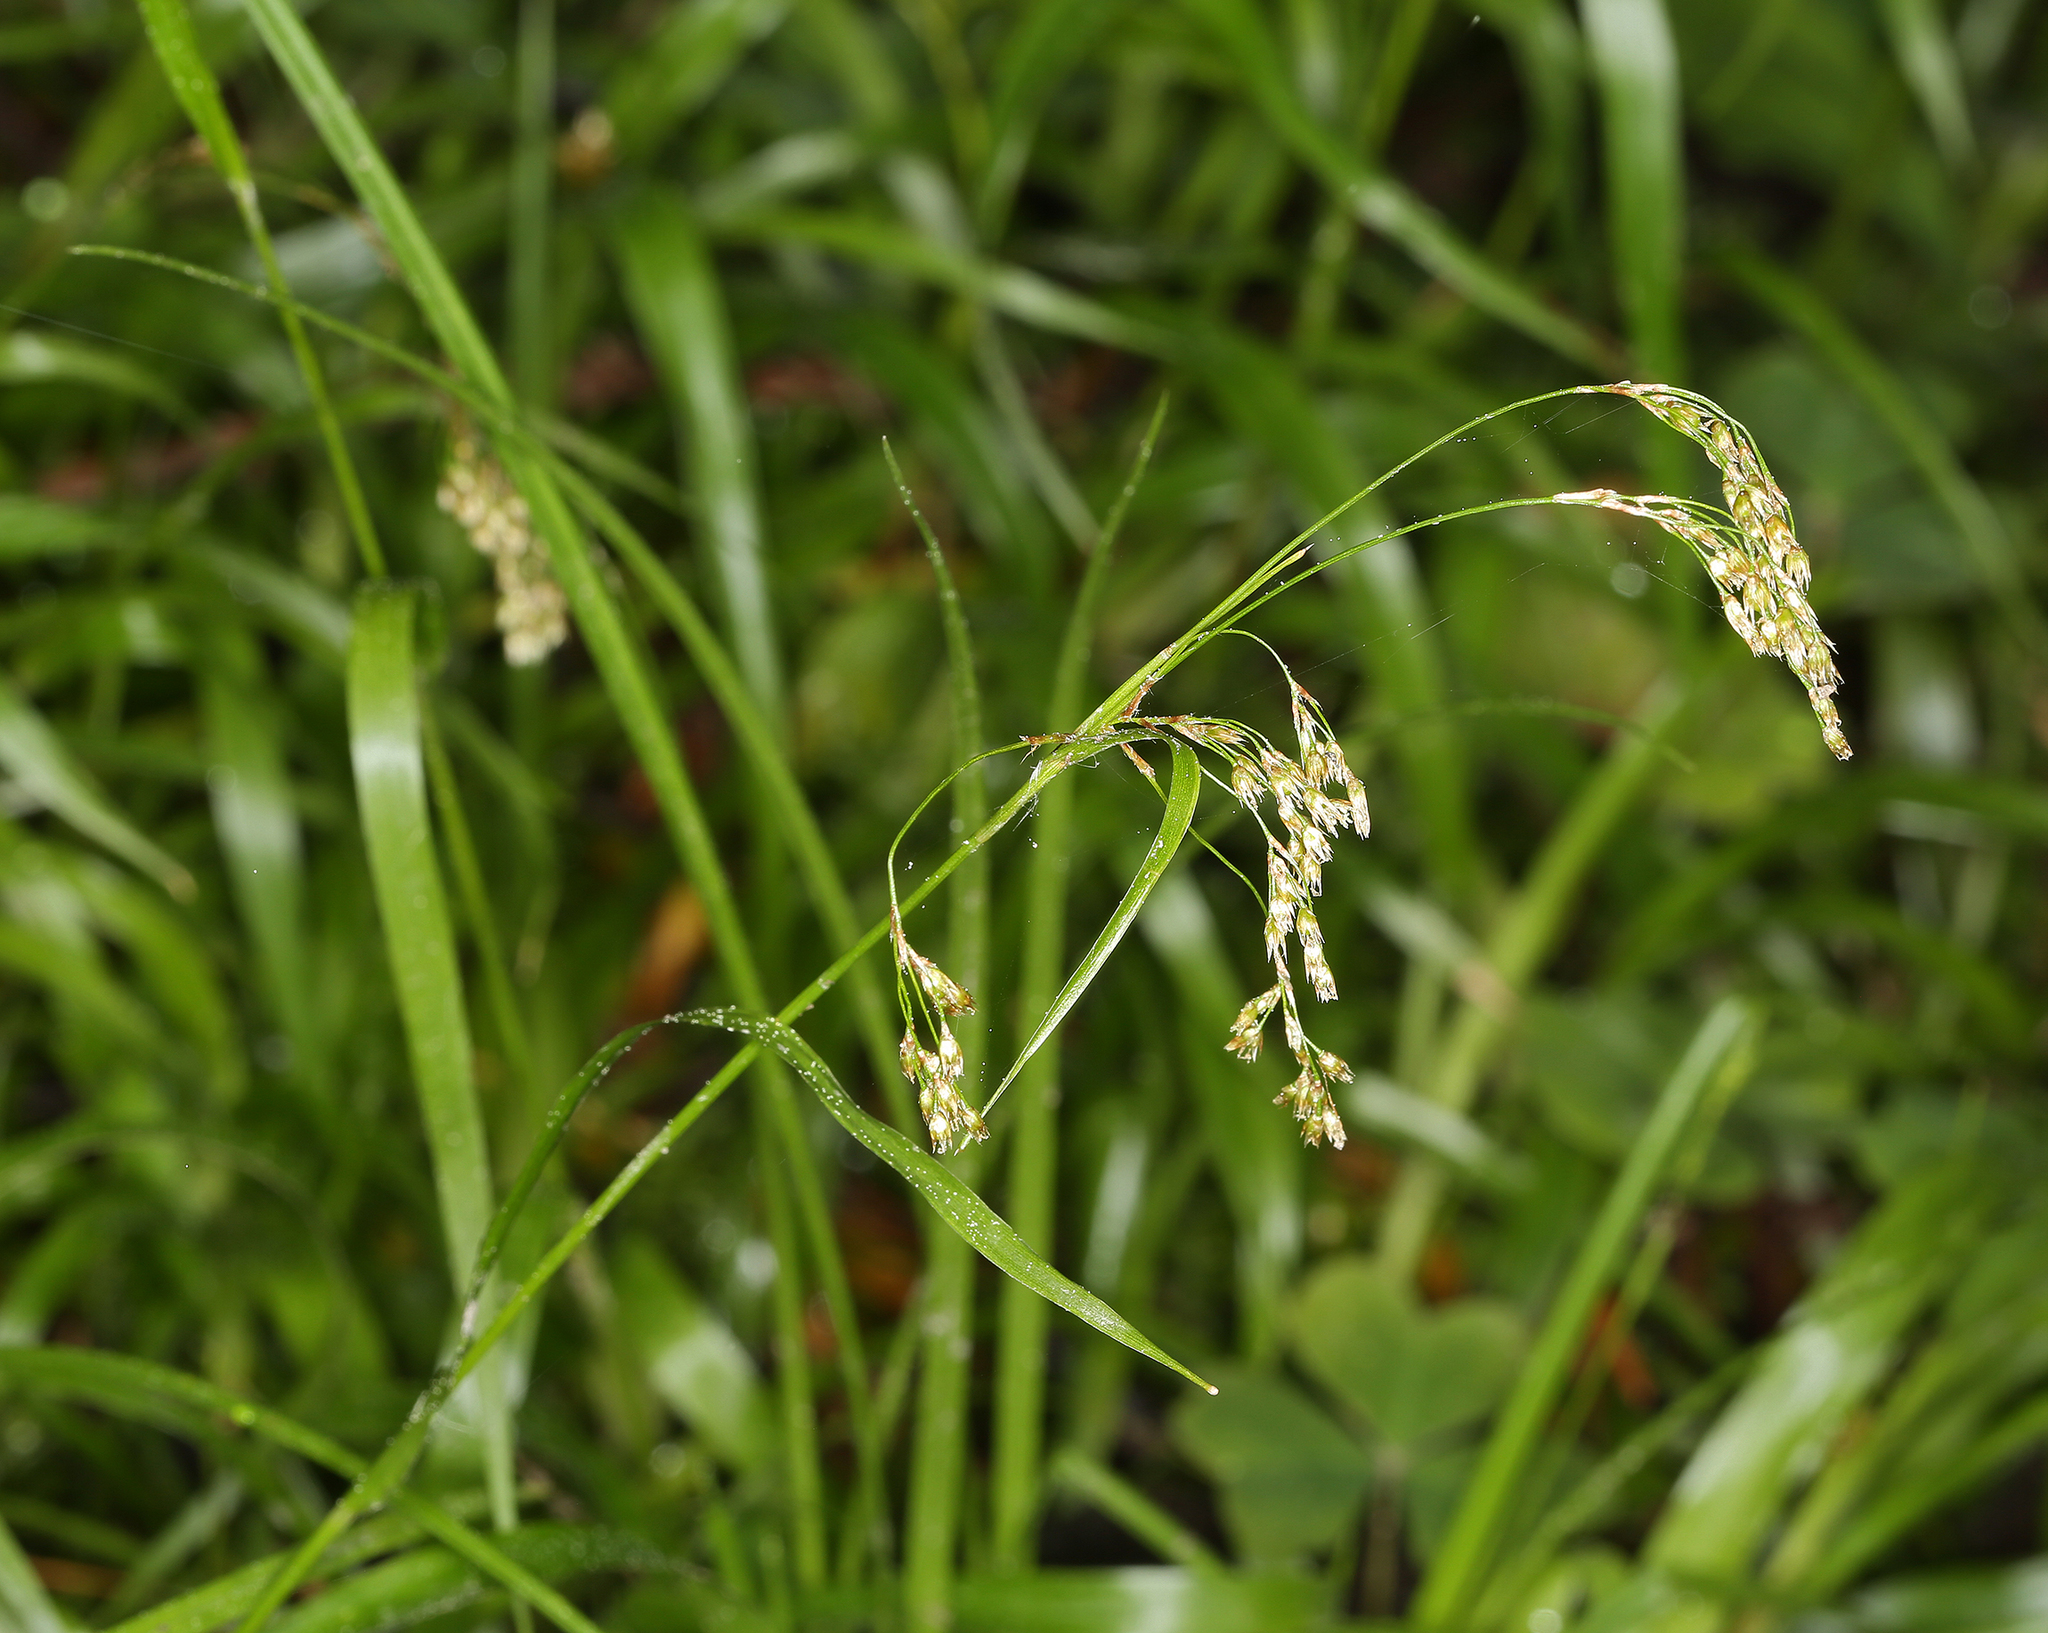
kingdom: Plantae
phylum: Tracheophyta
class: Liliopsida
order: Poales
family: Juncaceae
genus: Luzula
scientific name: Luzula parviflora
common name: Millet woodrush
